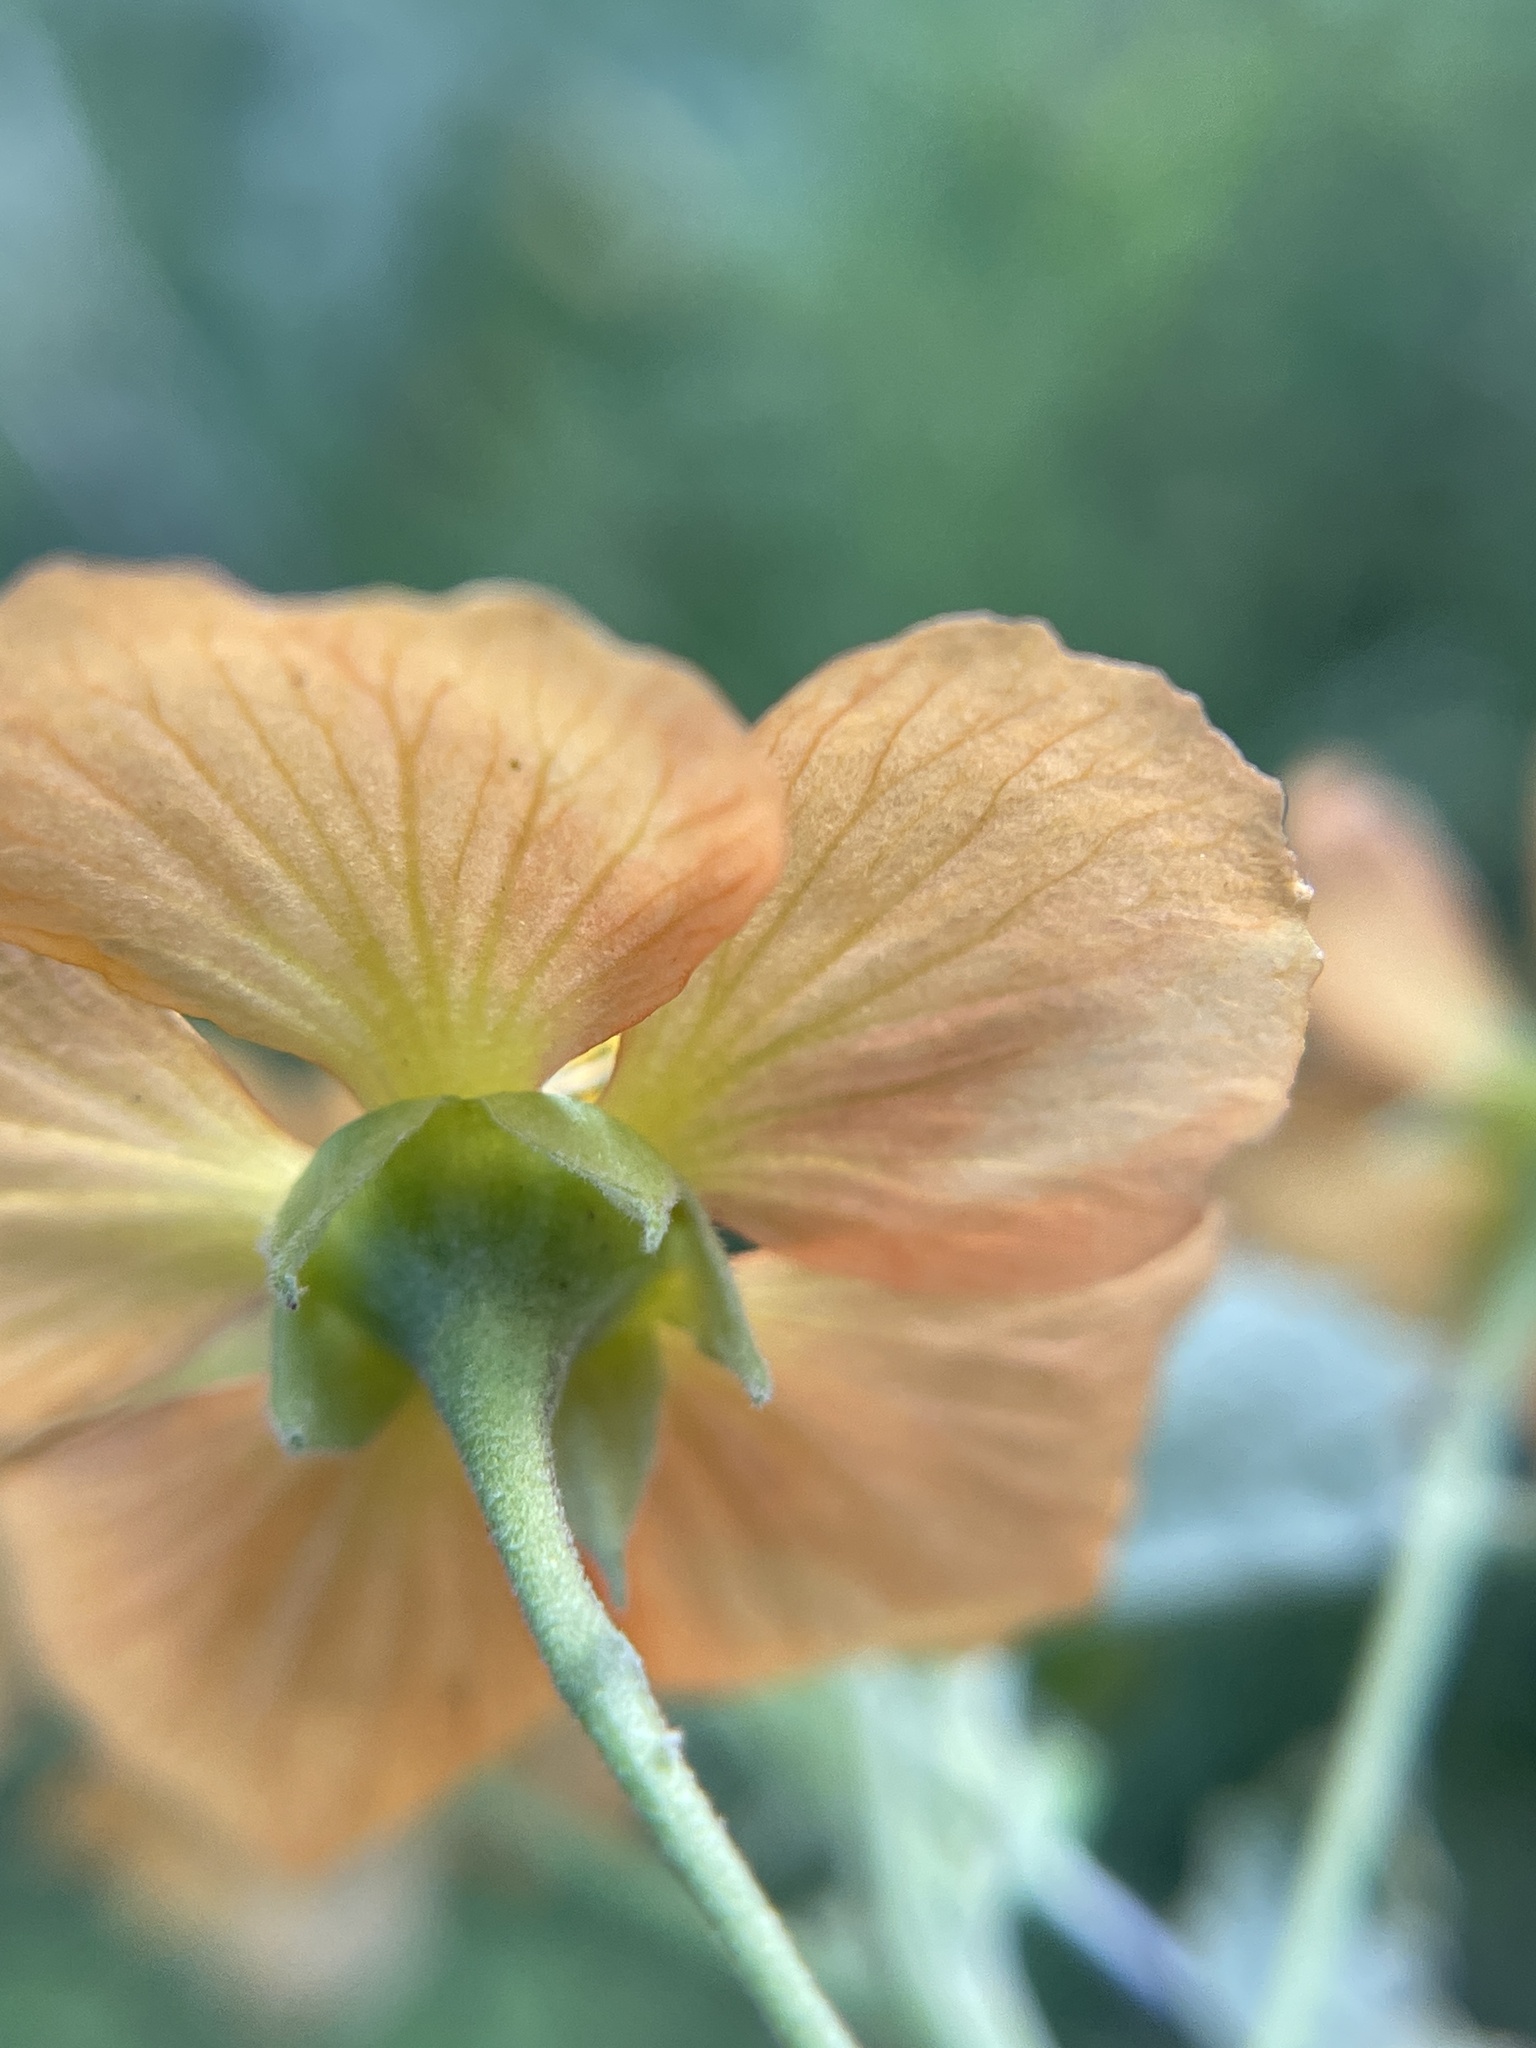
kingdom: Plantae
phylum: Tracheophyta
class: Magnoliopsida
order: Malvales
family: Malvaceae
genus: Abutilon
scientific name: Abutilon fruticosum
